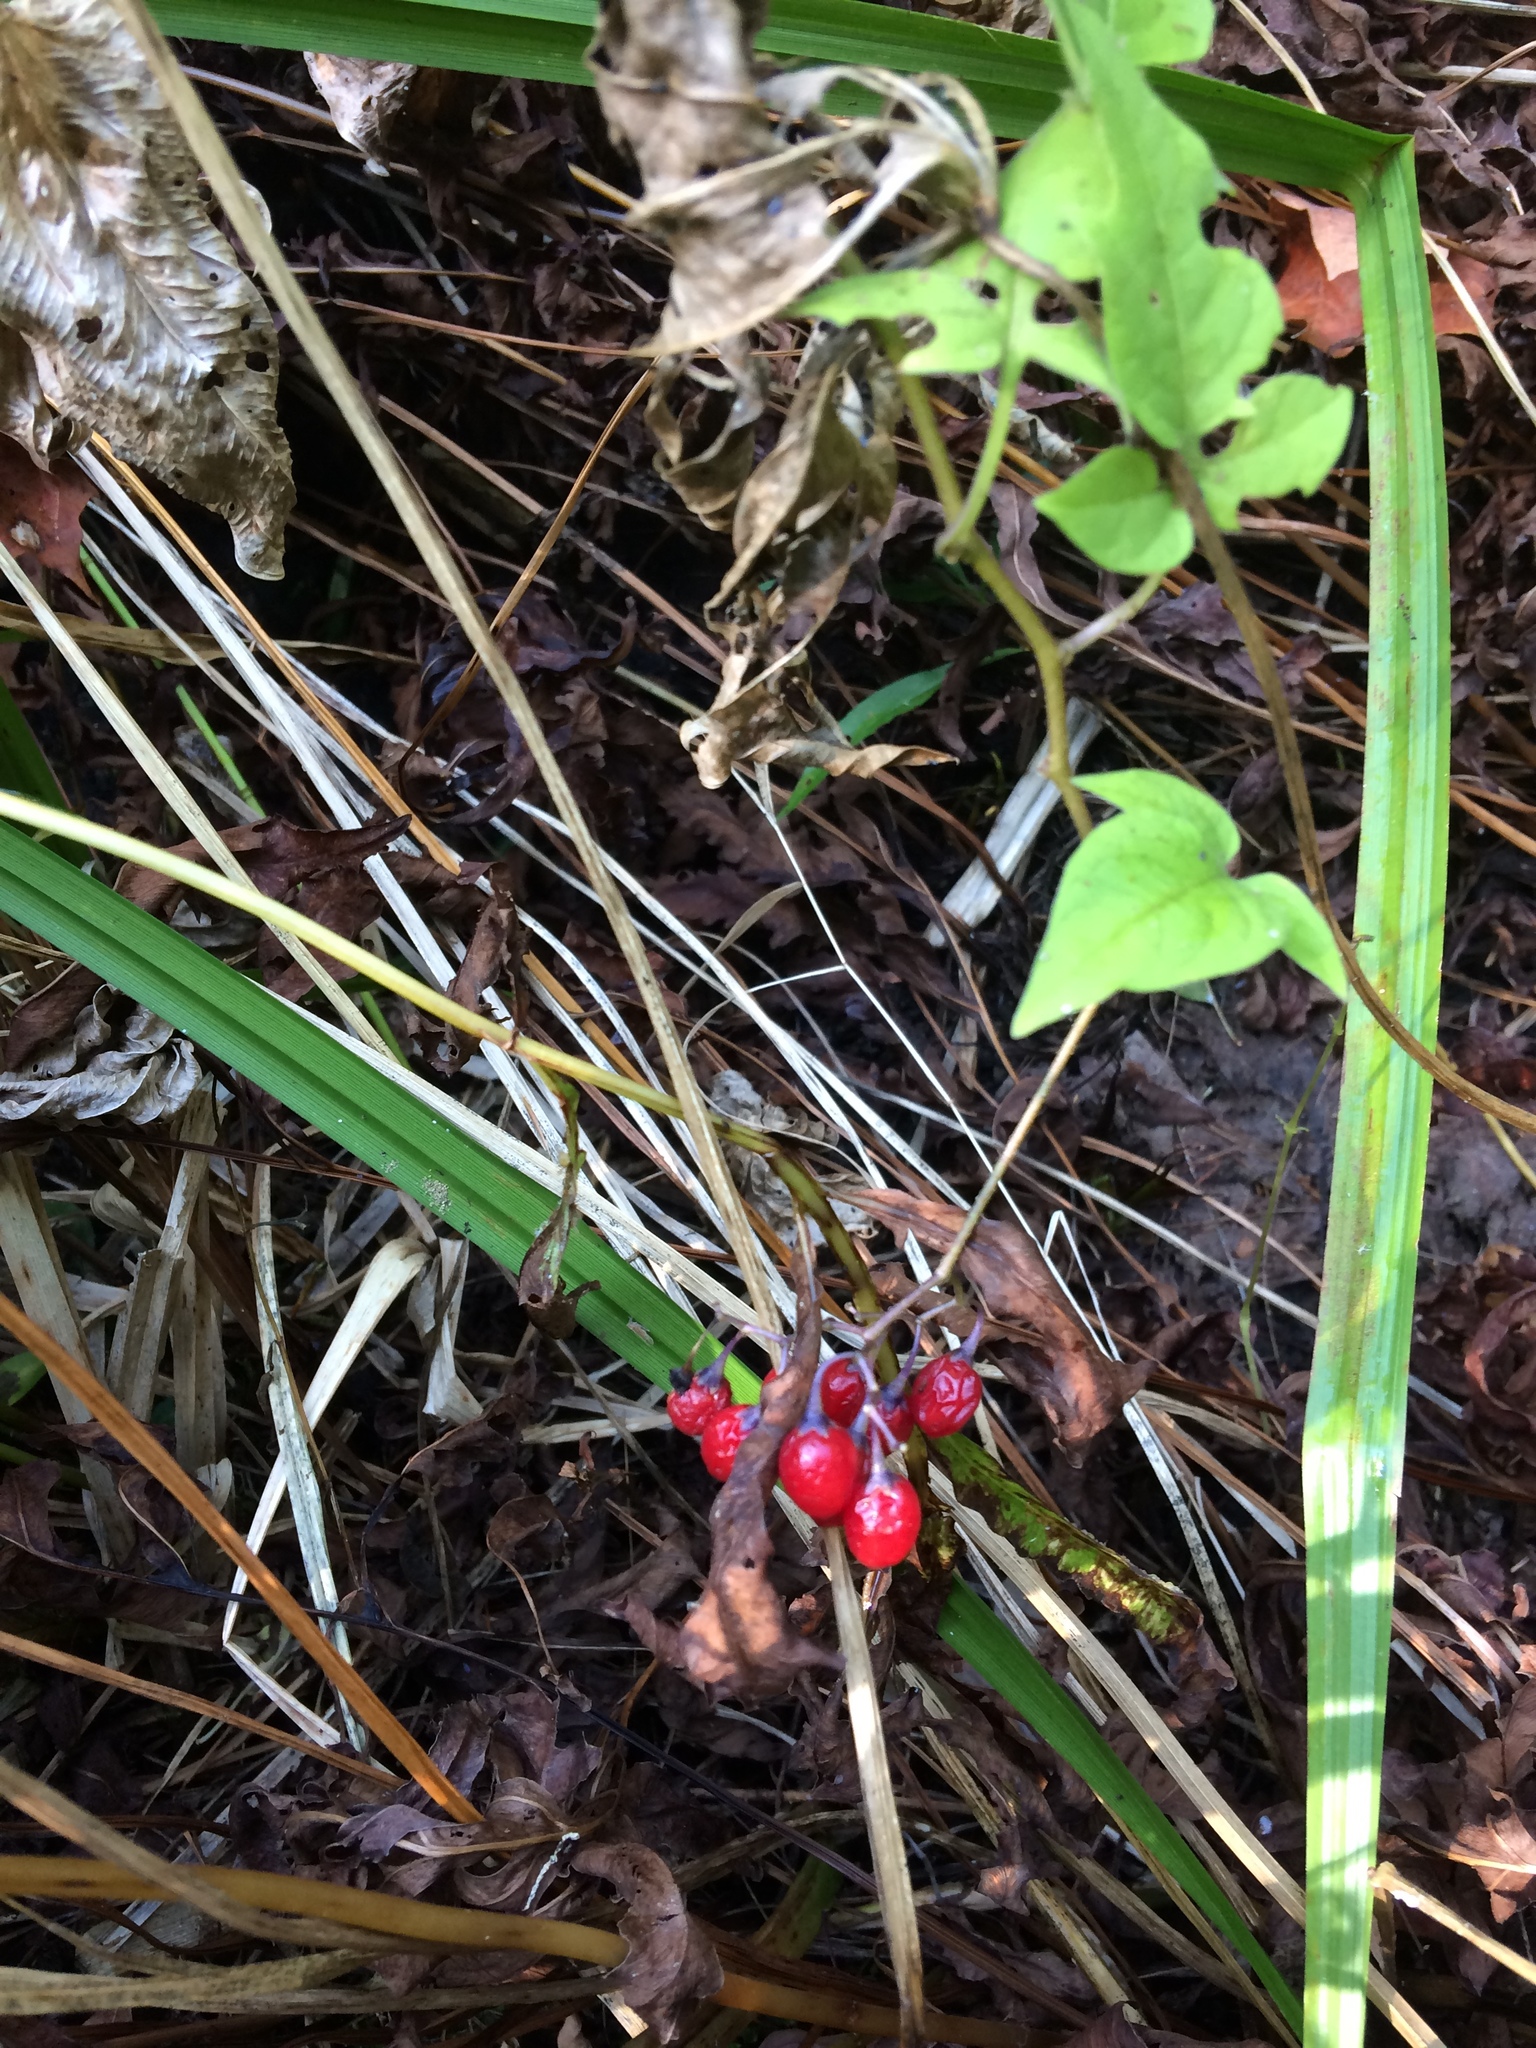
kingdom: Plantae
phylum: Tracheophyta
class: Magnoliopsida
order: Solanales
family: Solanaceae
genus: Solanum
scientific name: Solanum dulcamara
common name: Climbing nightshade
